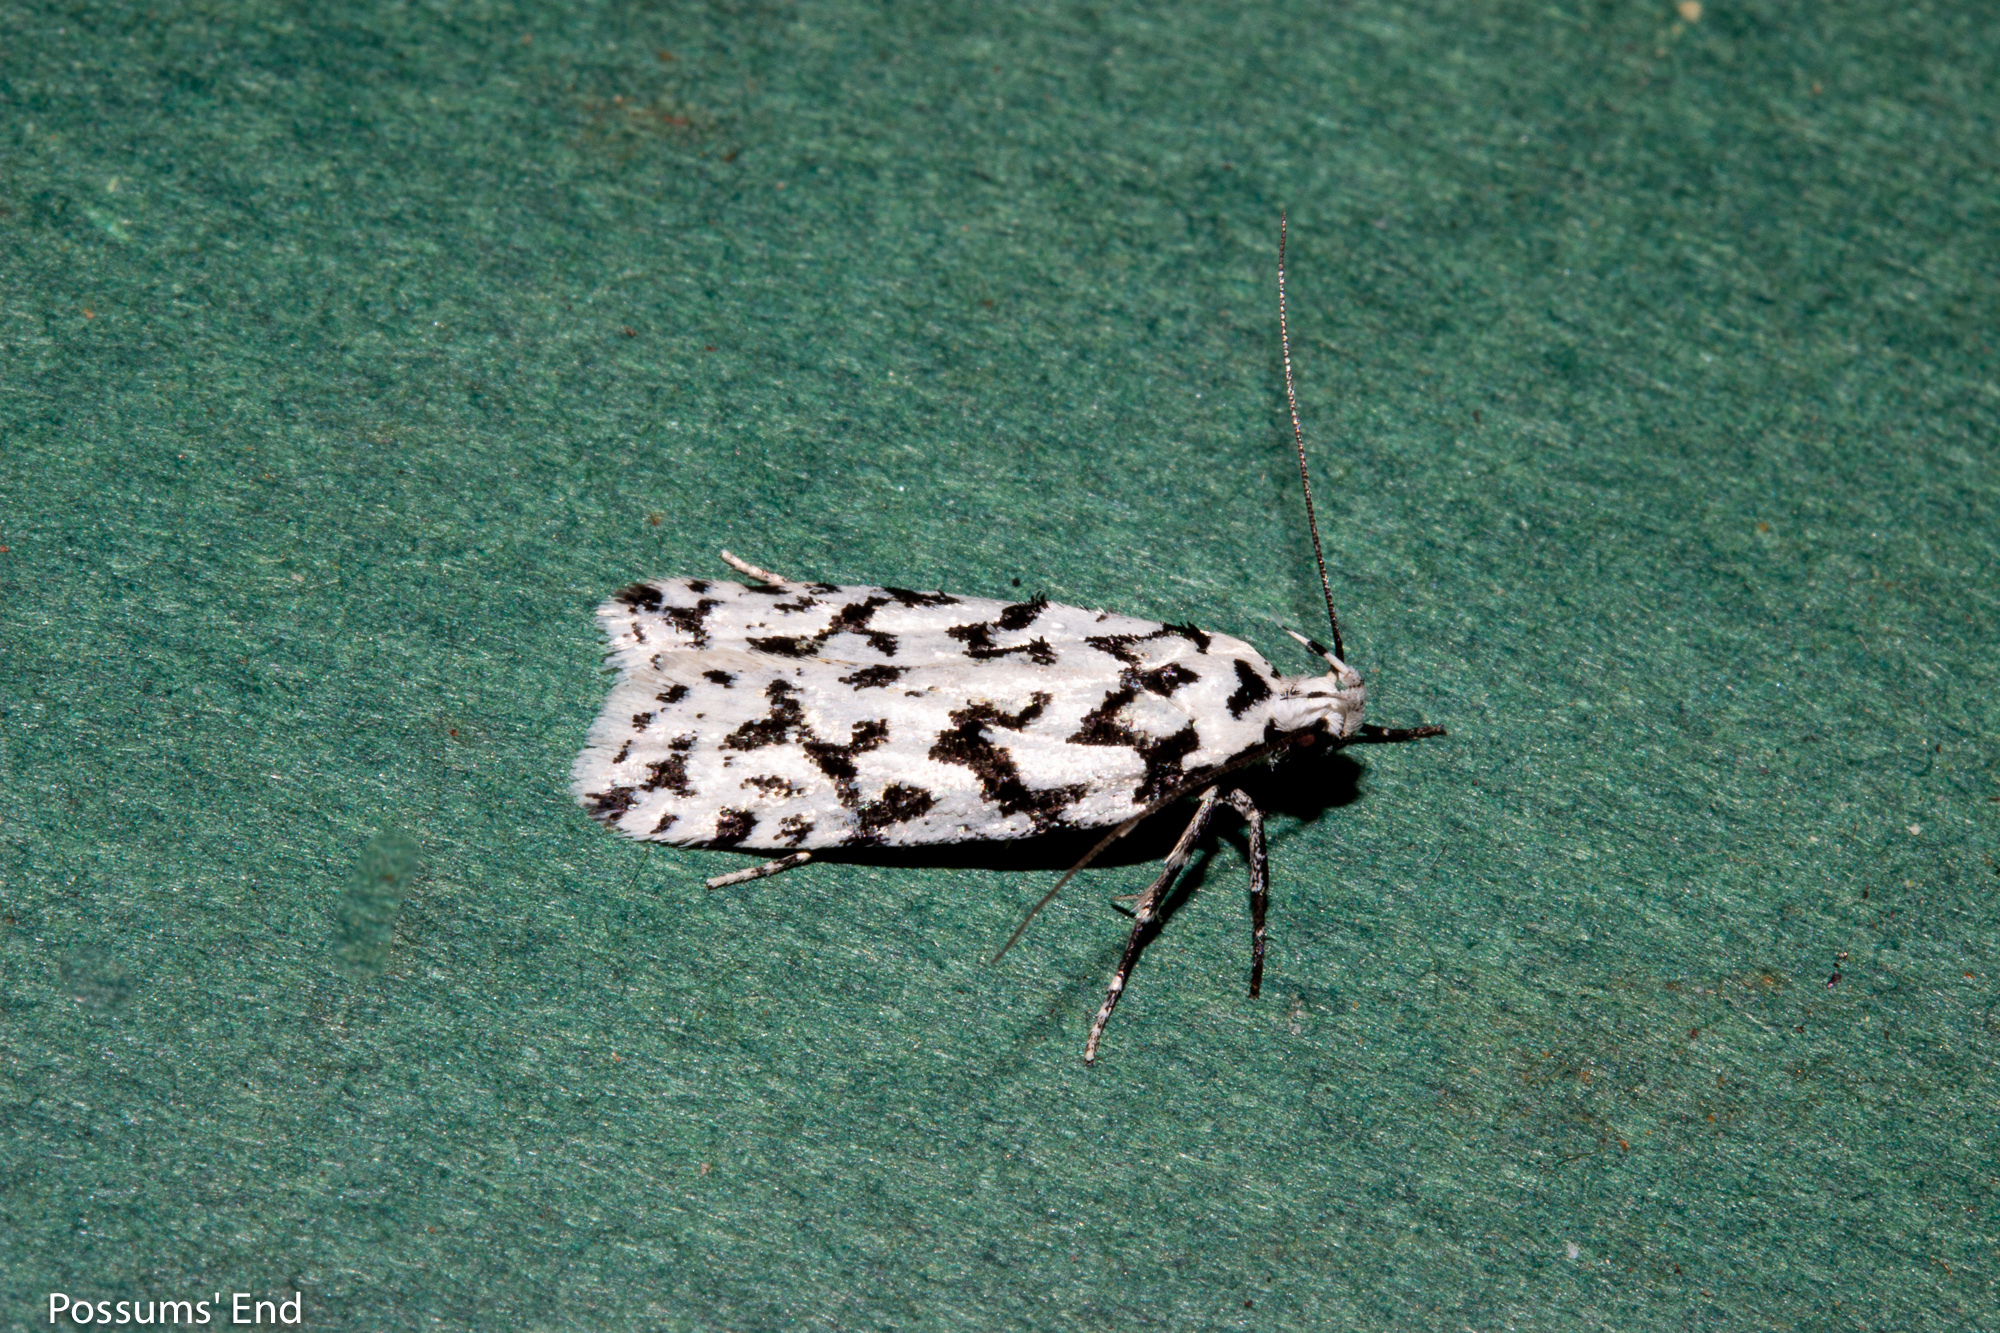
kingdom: Animalia
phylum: Arthropoda
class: Insecta
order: Lepidoptera
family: Oecophoridae
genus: Izatha
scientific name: Izatha katadiktya
